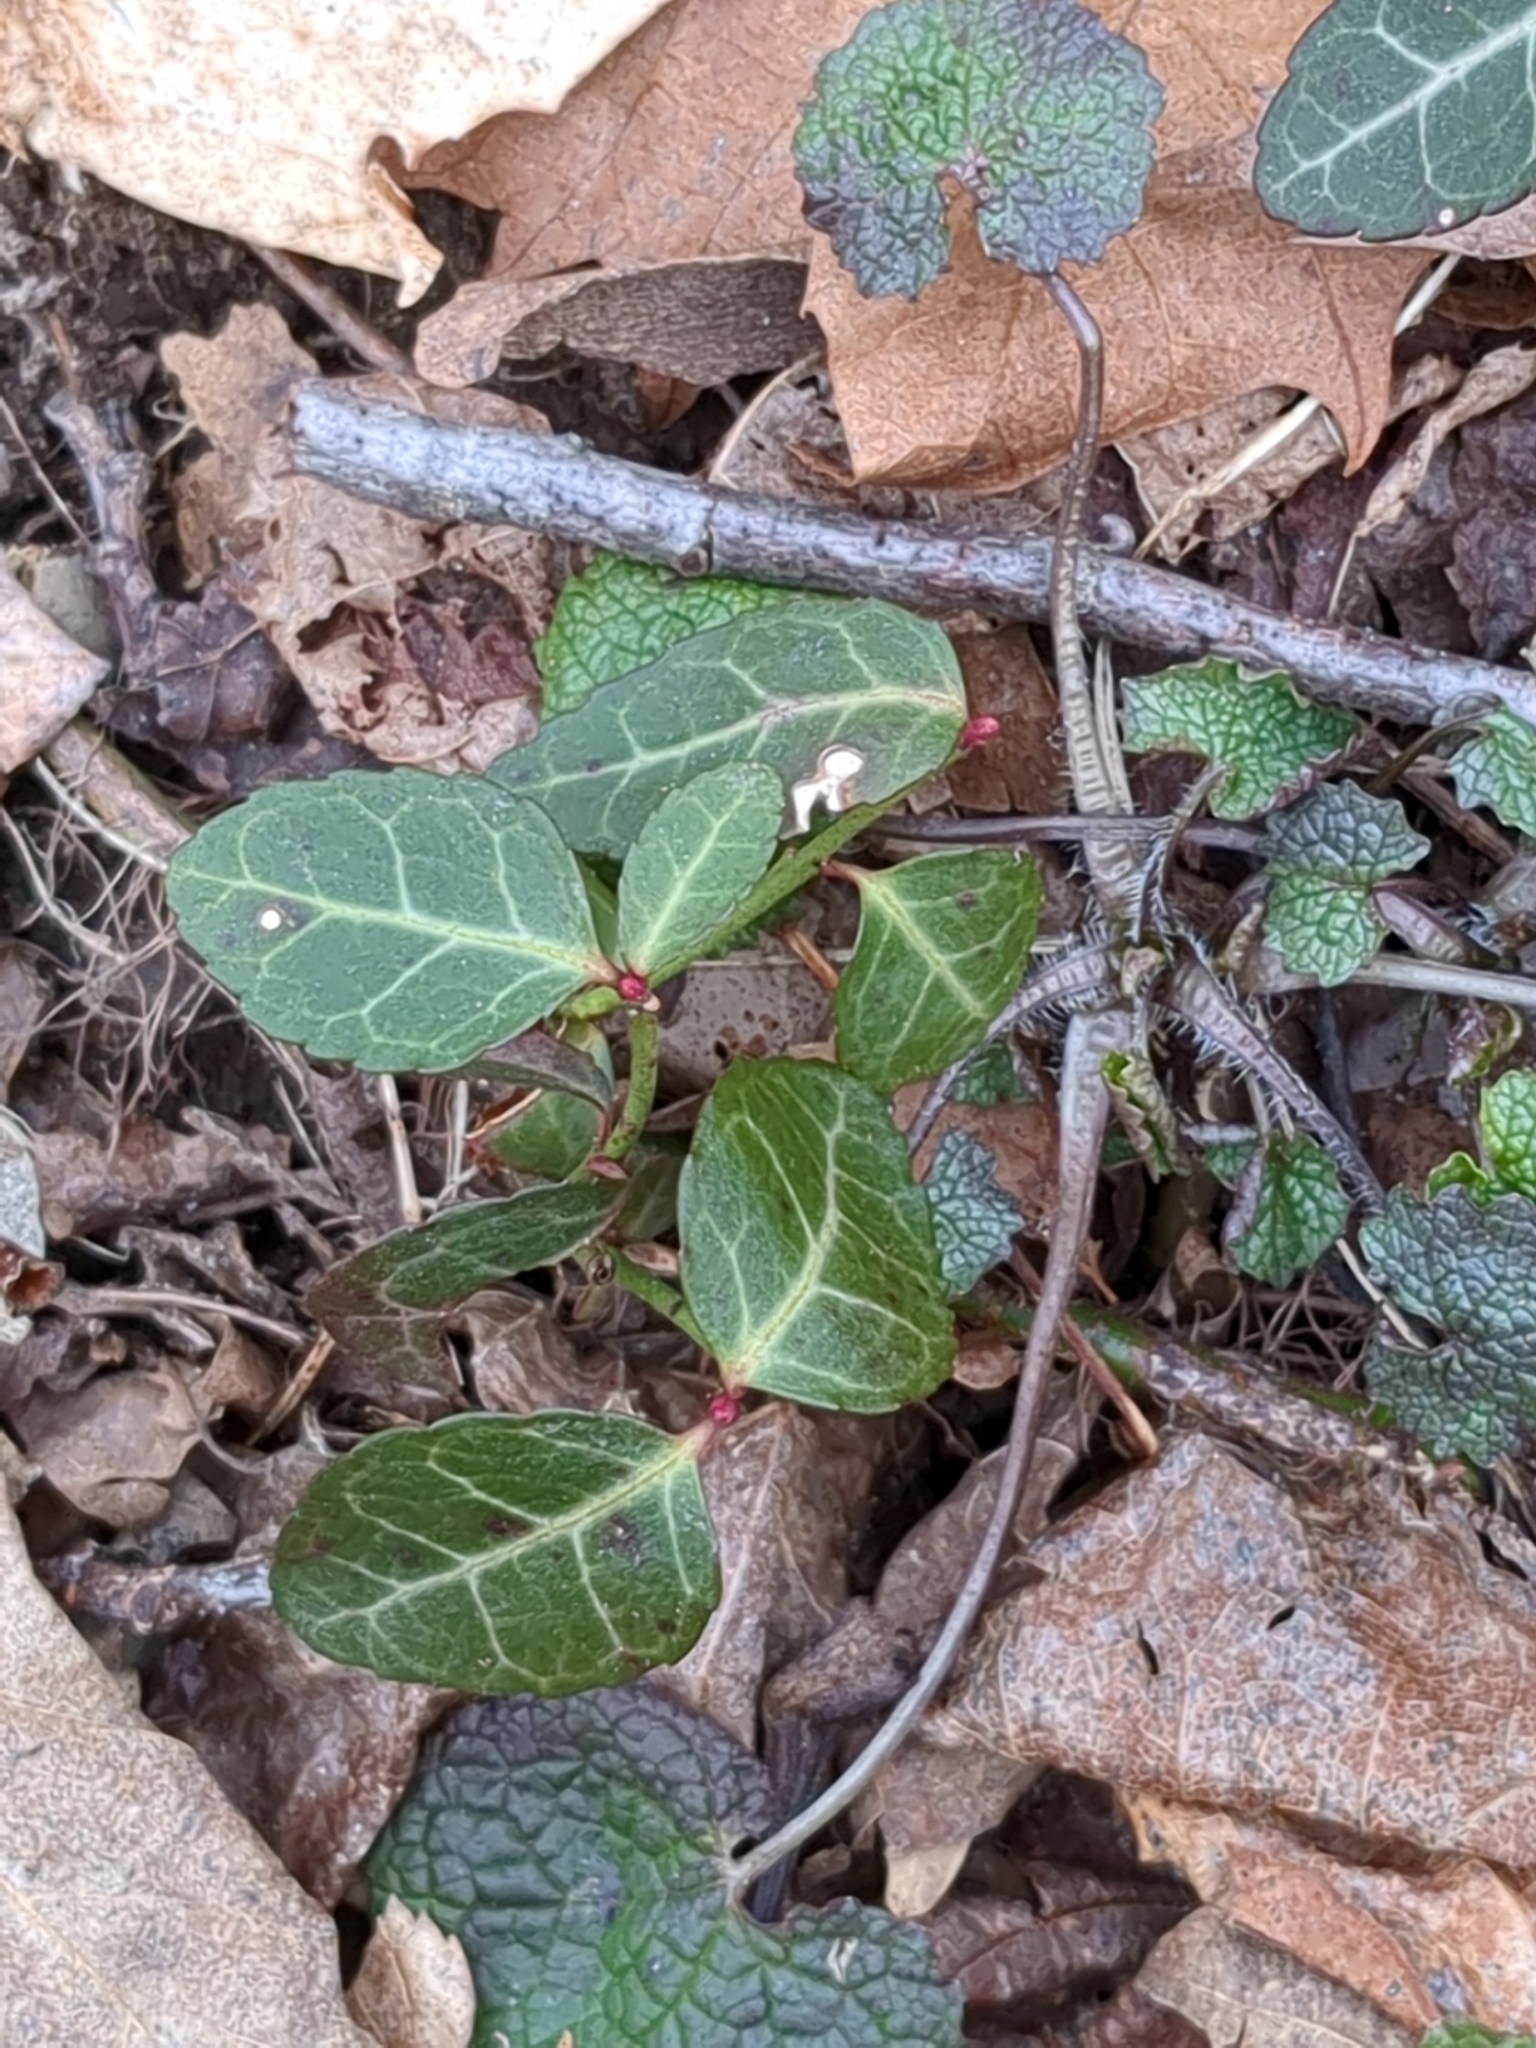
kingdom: Plantae
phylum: Tracheophyta
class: Magnoliopsida
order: Celastrales
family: Celastraceae
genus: Euonymus
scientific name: Euonymus fortunei
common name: Climbing euonymus
